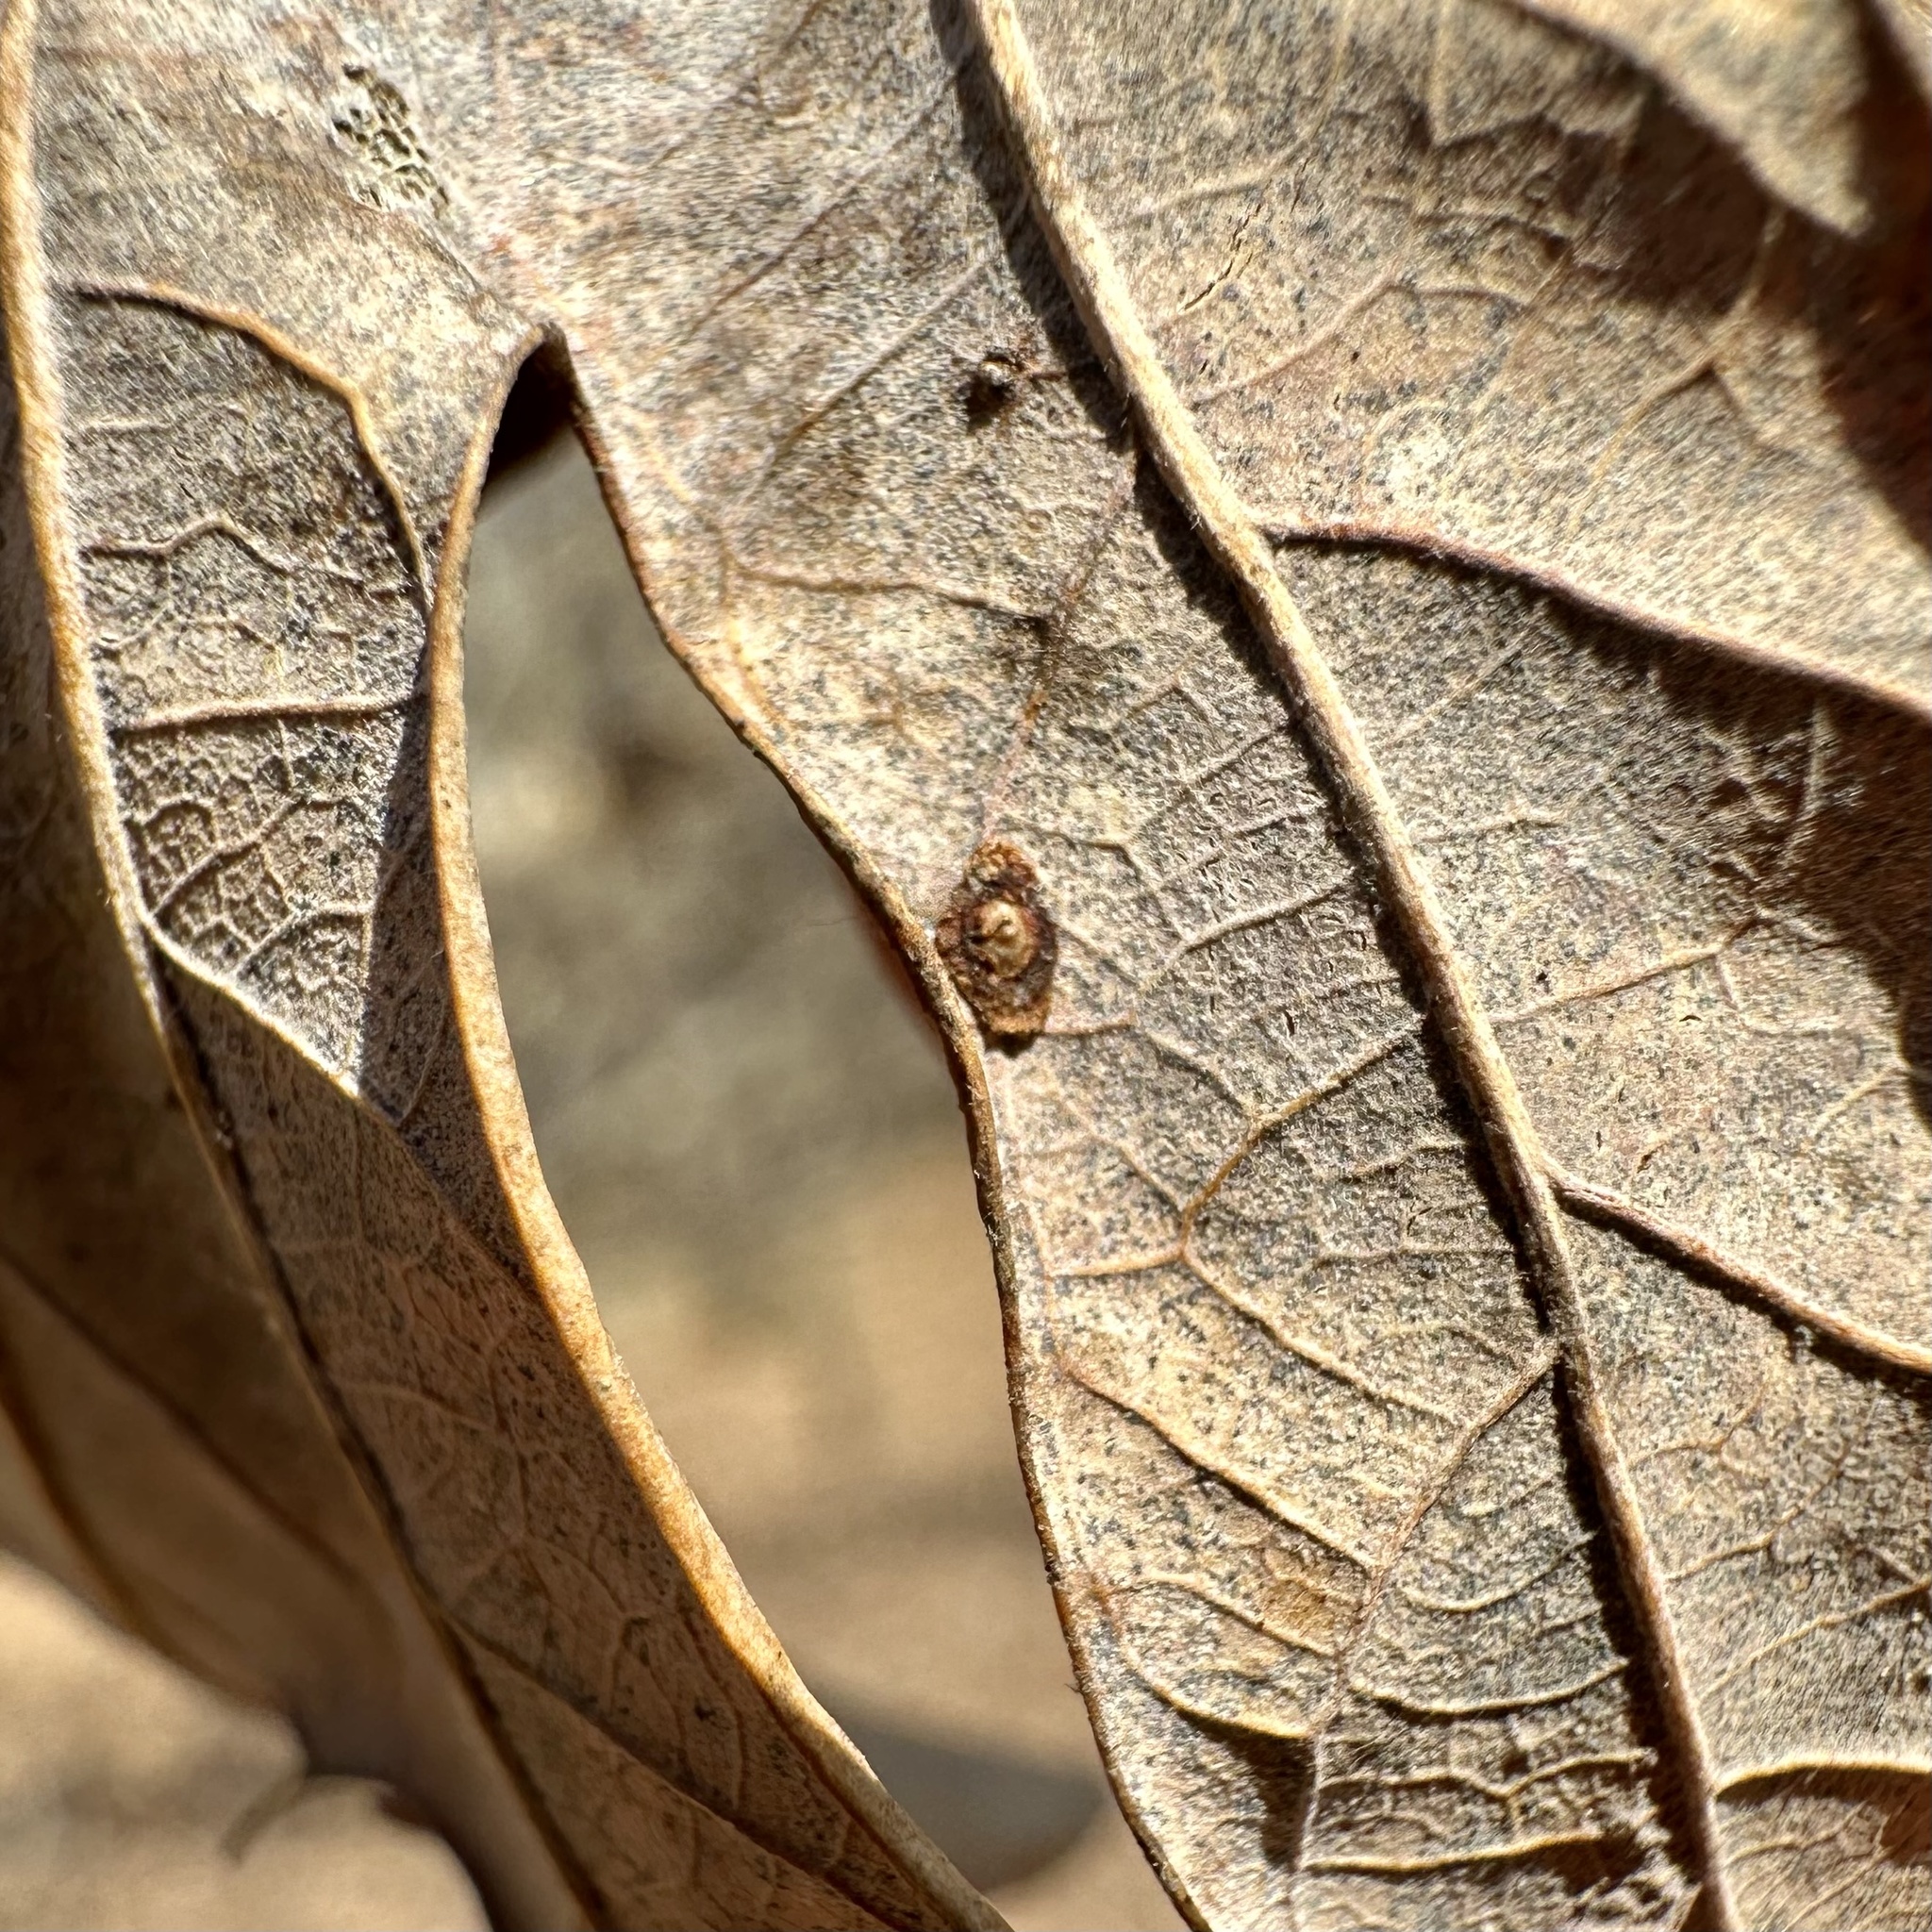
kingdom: Animalia
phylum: Arthropoda
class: Insecta
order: Hymenoptera
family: Cynipidae
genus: Phylloteras
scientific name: Phylloteras
